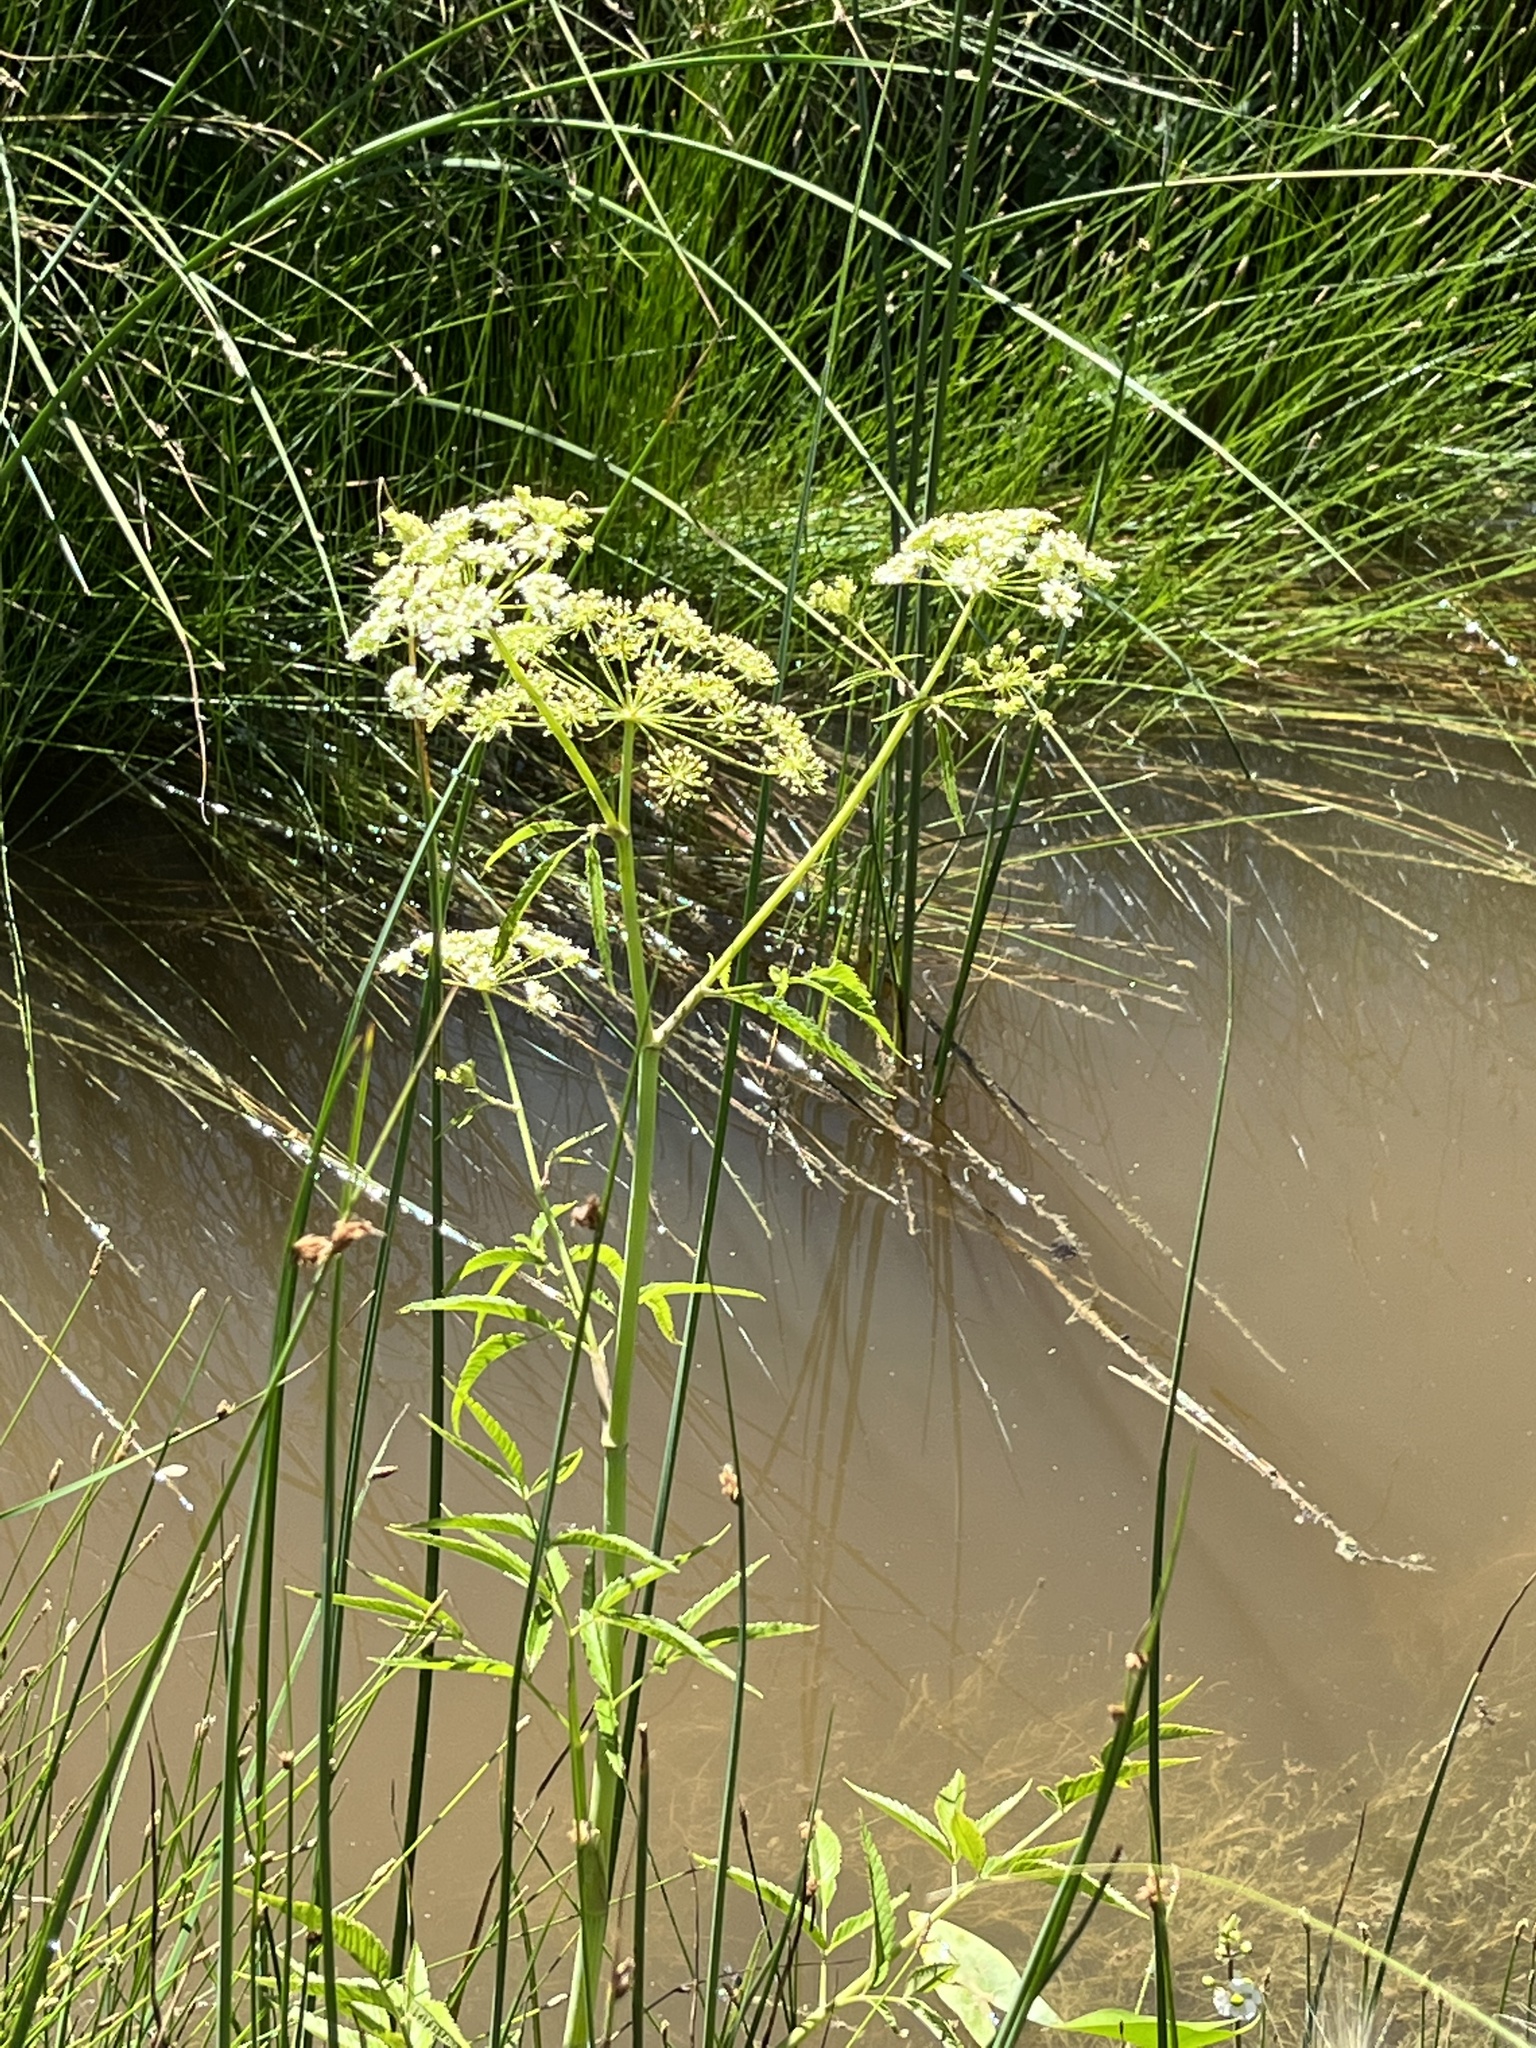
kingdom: Plantae
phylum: Tracheophyta
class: Magnoliopsida
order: Apiales
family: Apiaceae
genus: Cicuta
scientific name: Cicuta maculata
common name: Spotted cowbane
